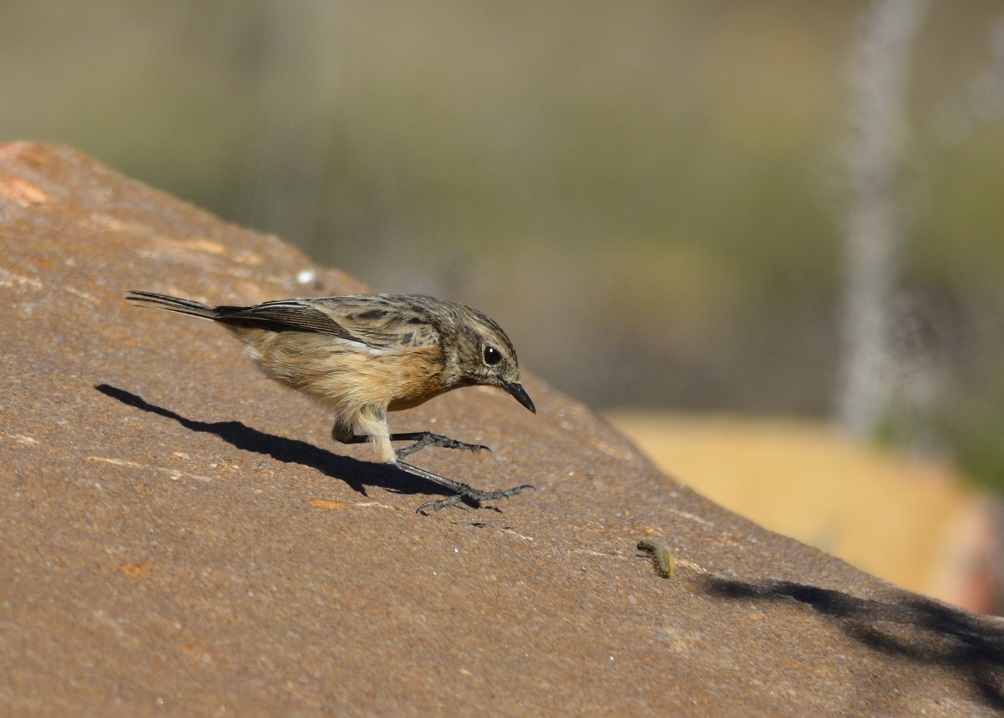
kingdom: Animalia
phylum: Chordata
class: Aves
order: Passeriformes
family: Muscicapidae
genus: Saxicola
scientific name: Saxicola rubicola
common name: European stonechat
